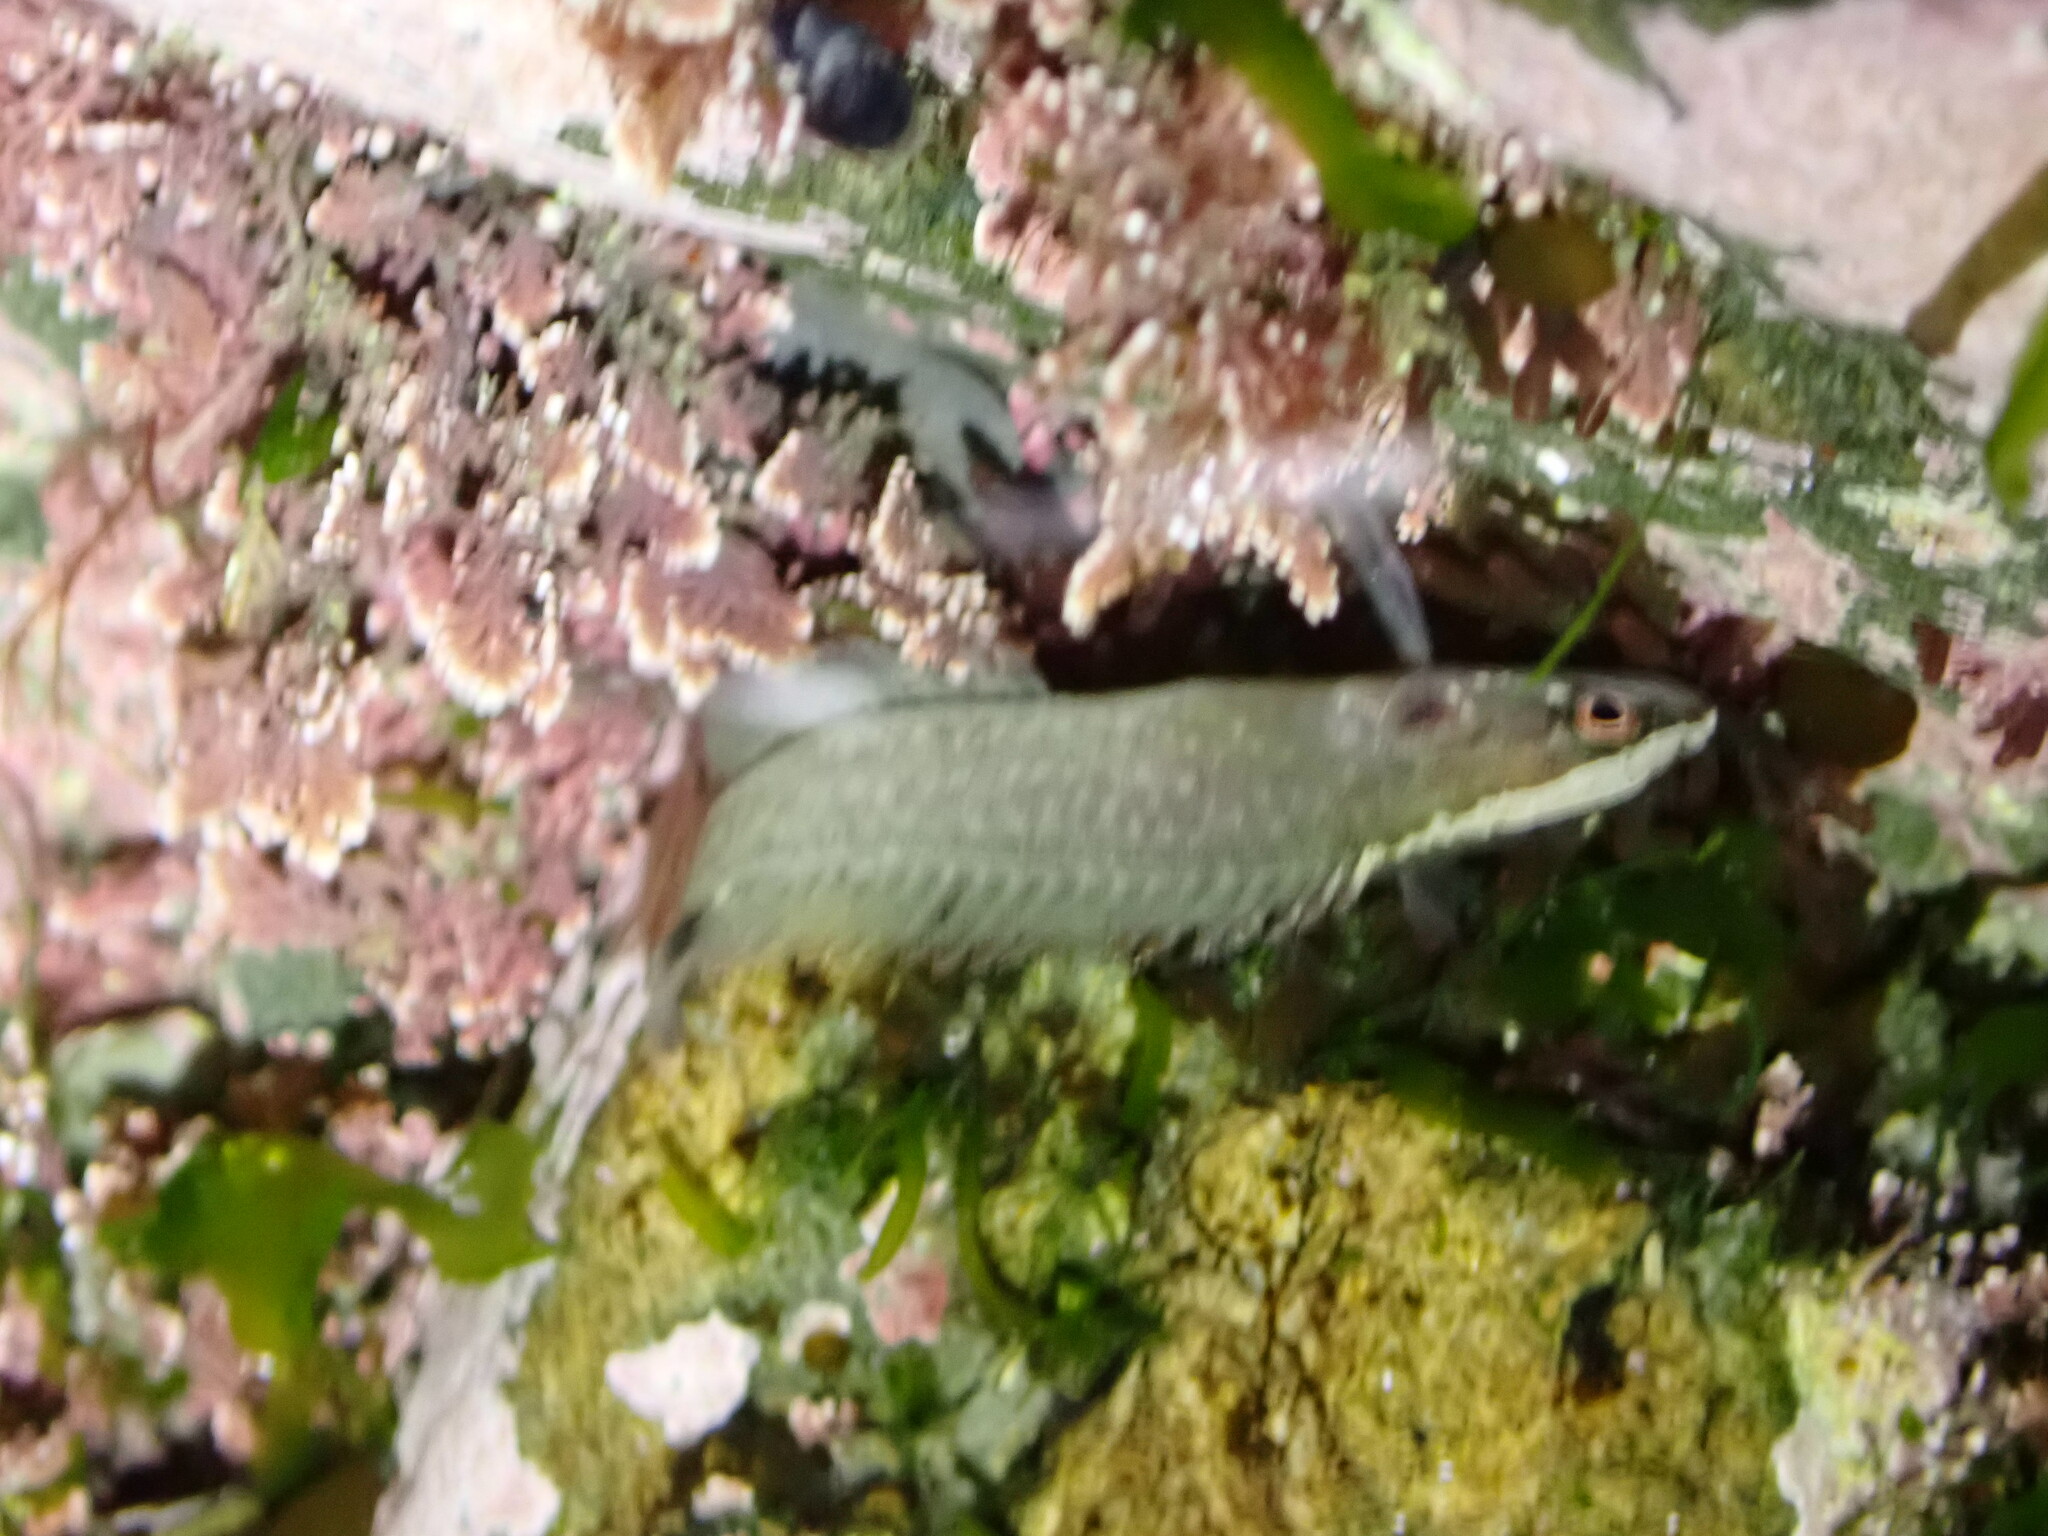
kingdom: Animalia
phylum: Chordata
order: Perciformes
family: Plesiopidae
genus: Acanthoclinus
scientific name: Acanthoclinus fuscus
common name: Olive rockfish
